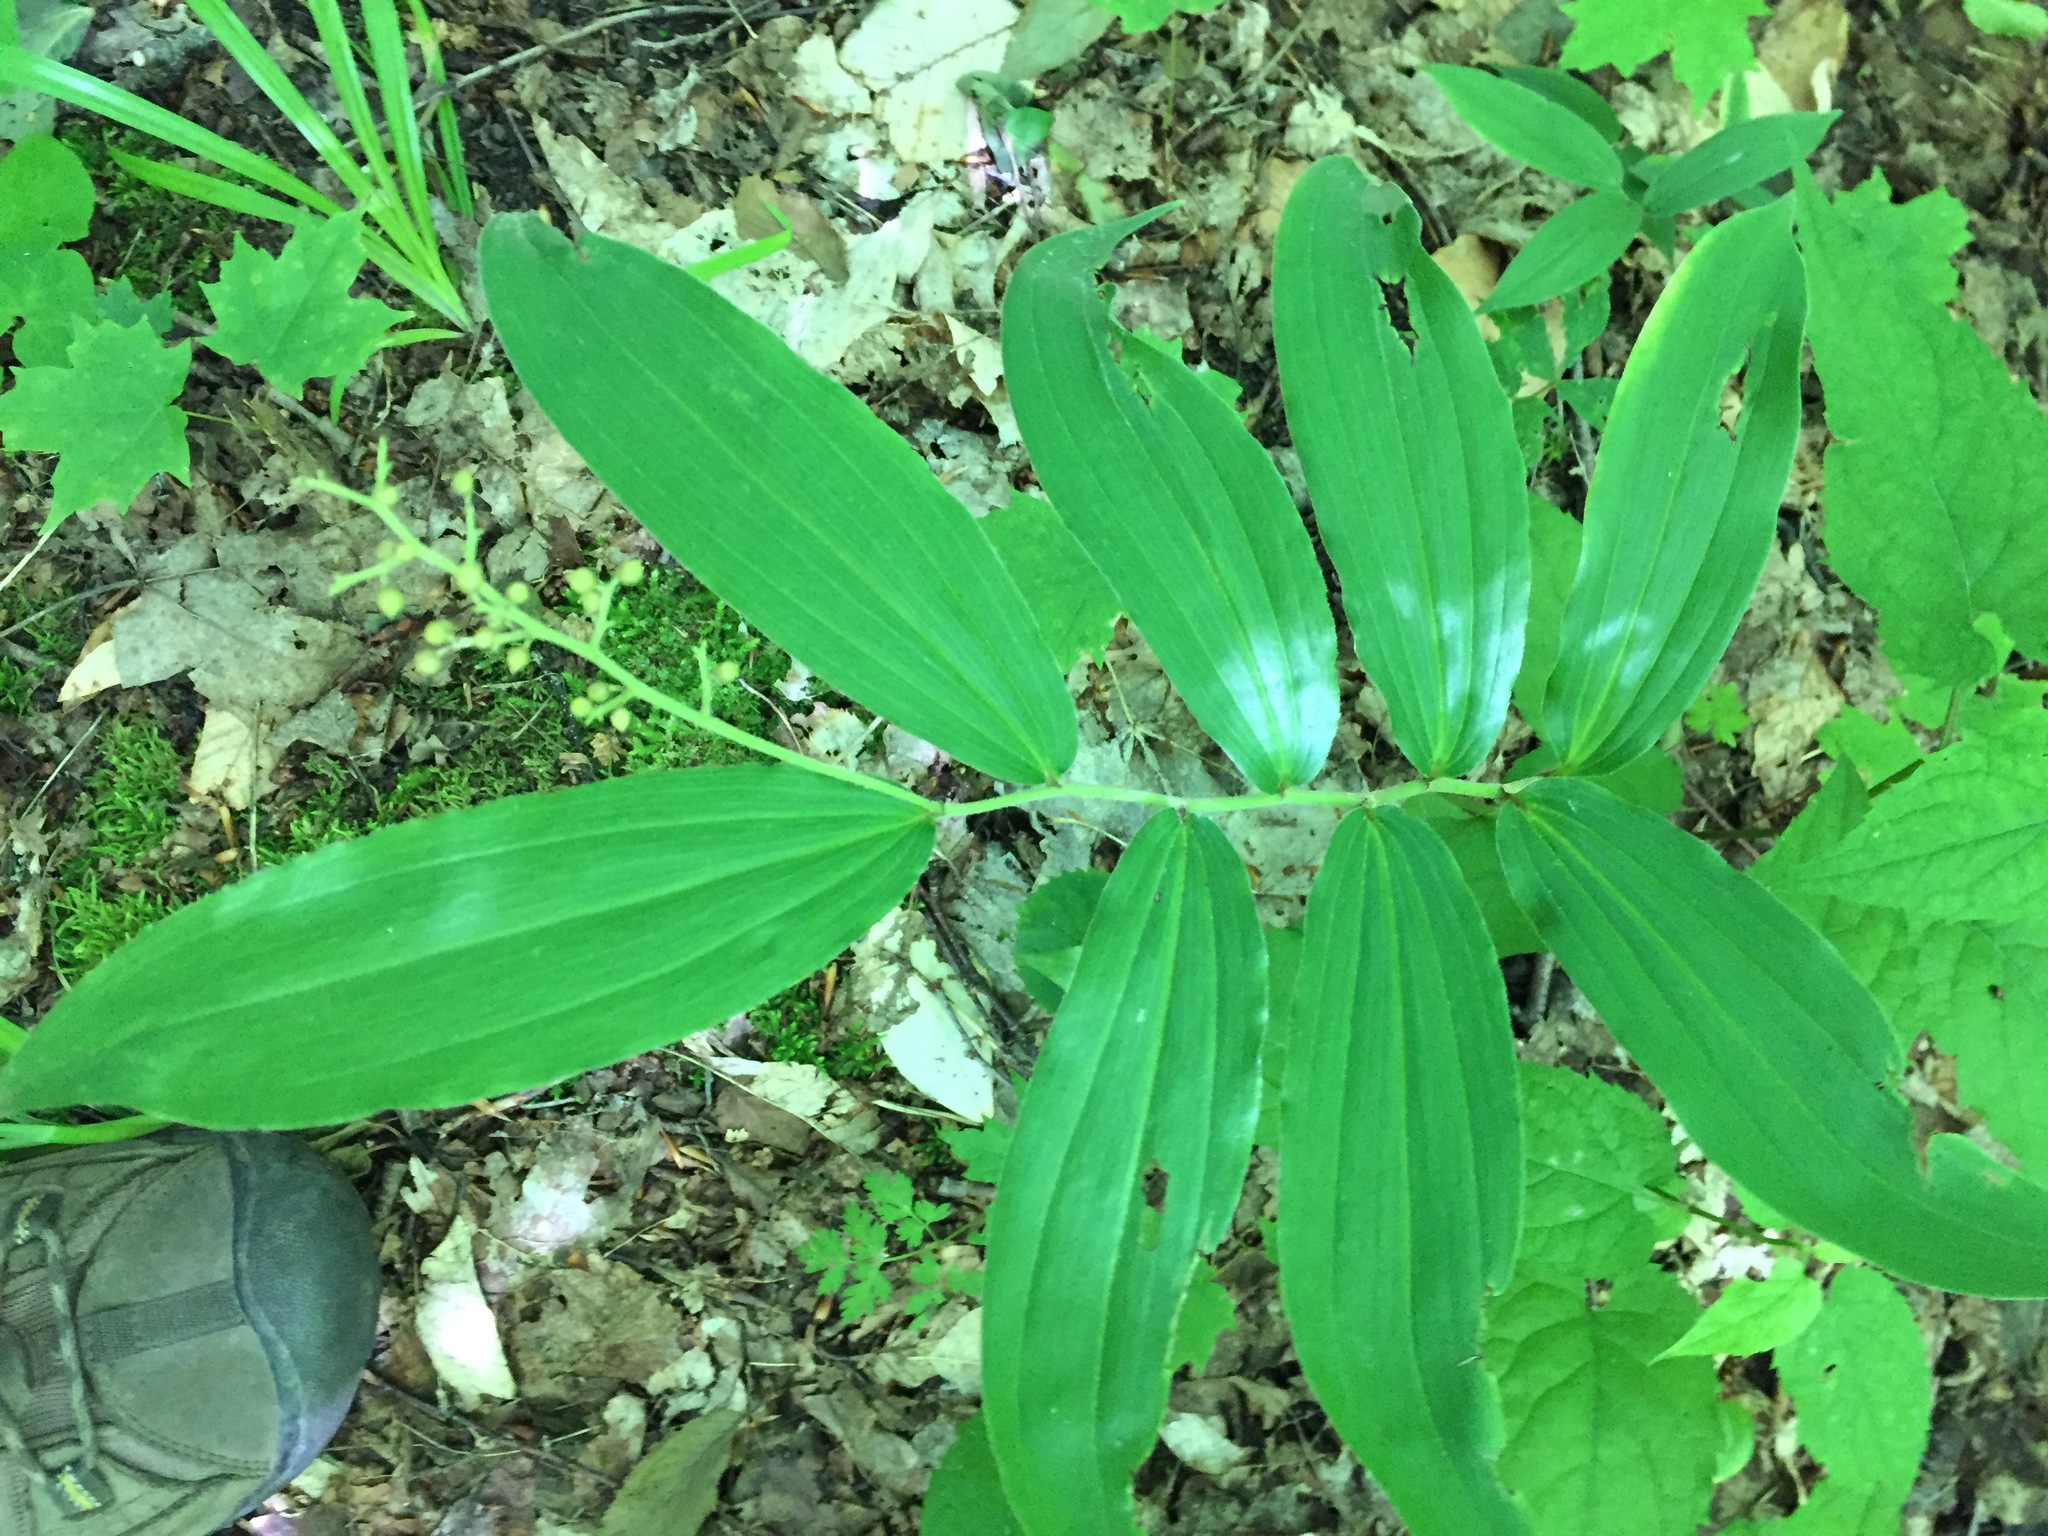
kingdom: Plantae
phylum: Tracheophyta
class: Liliopsida
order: Asparagales
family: Asparagaceae
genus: Maianthemum
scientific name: Maianthemum racemosum
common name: False spikenard
